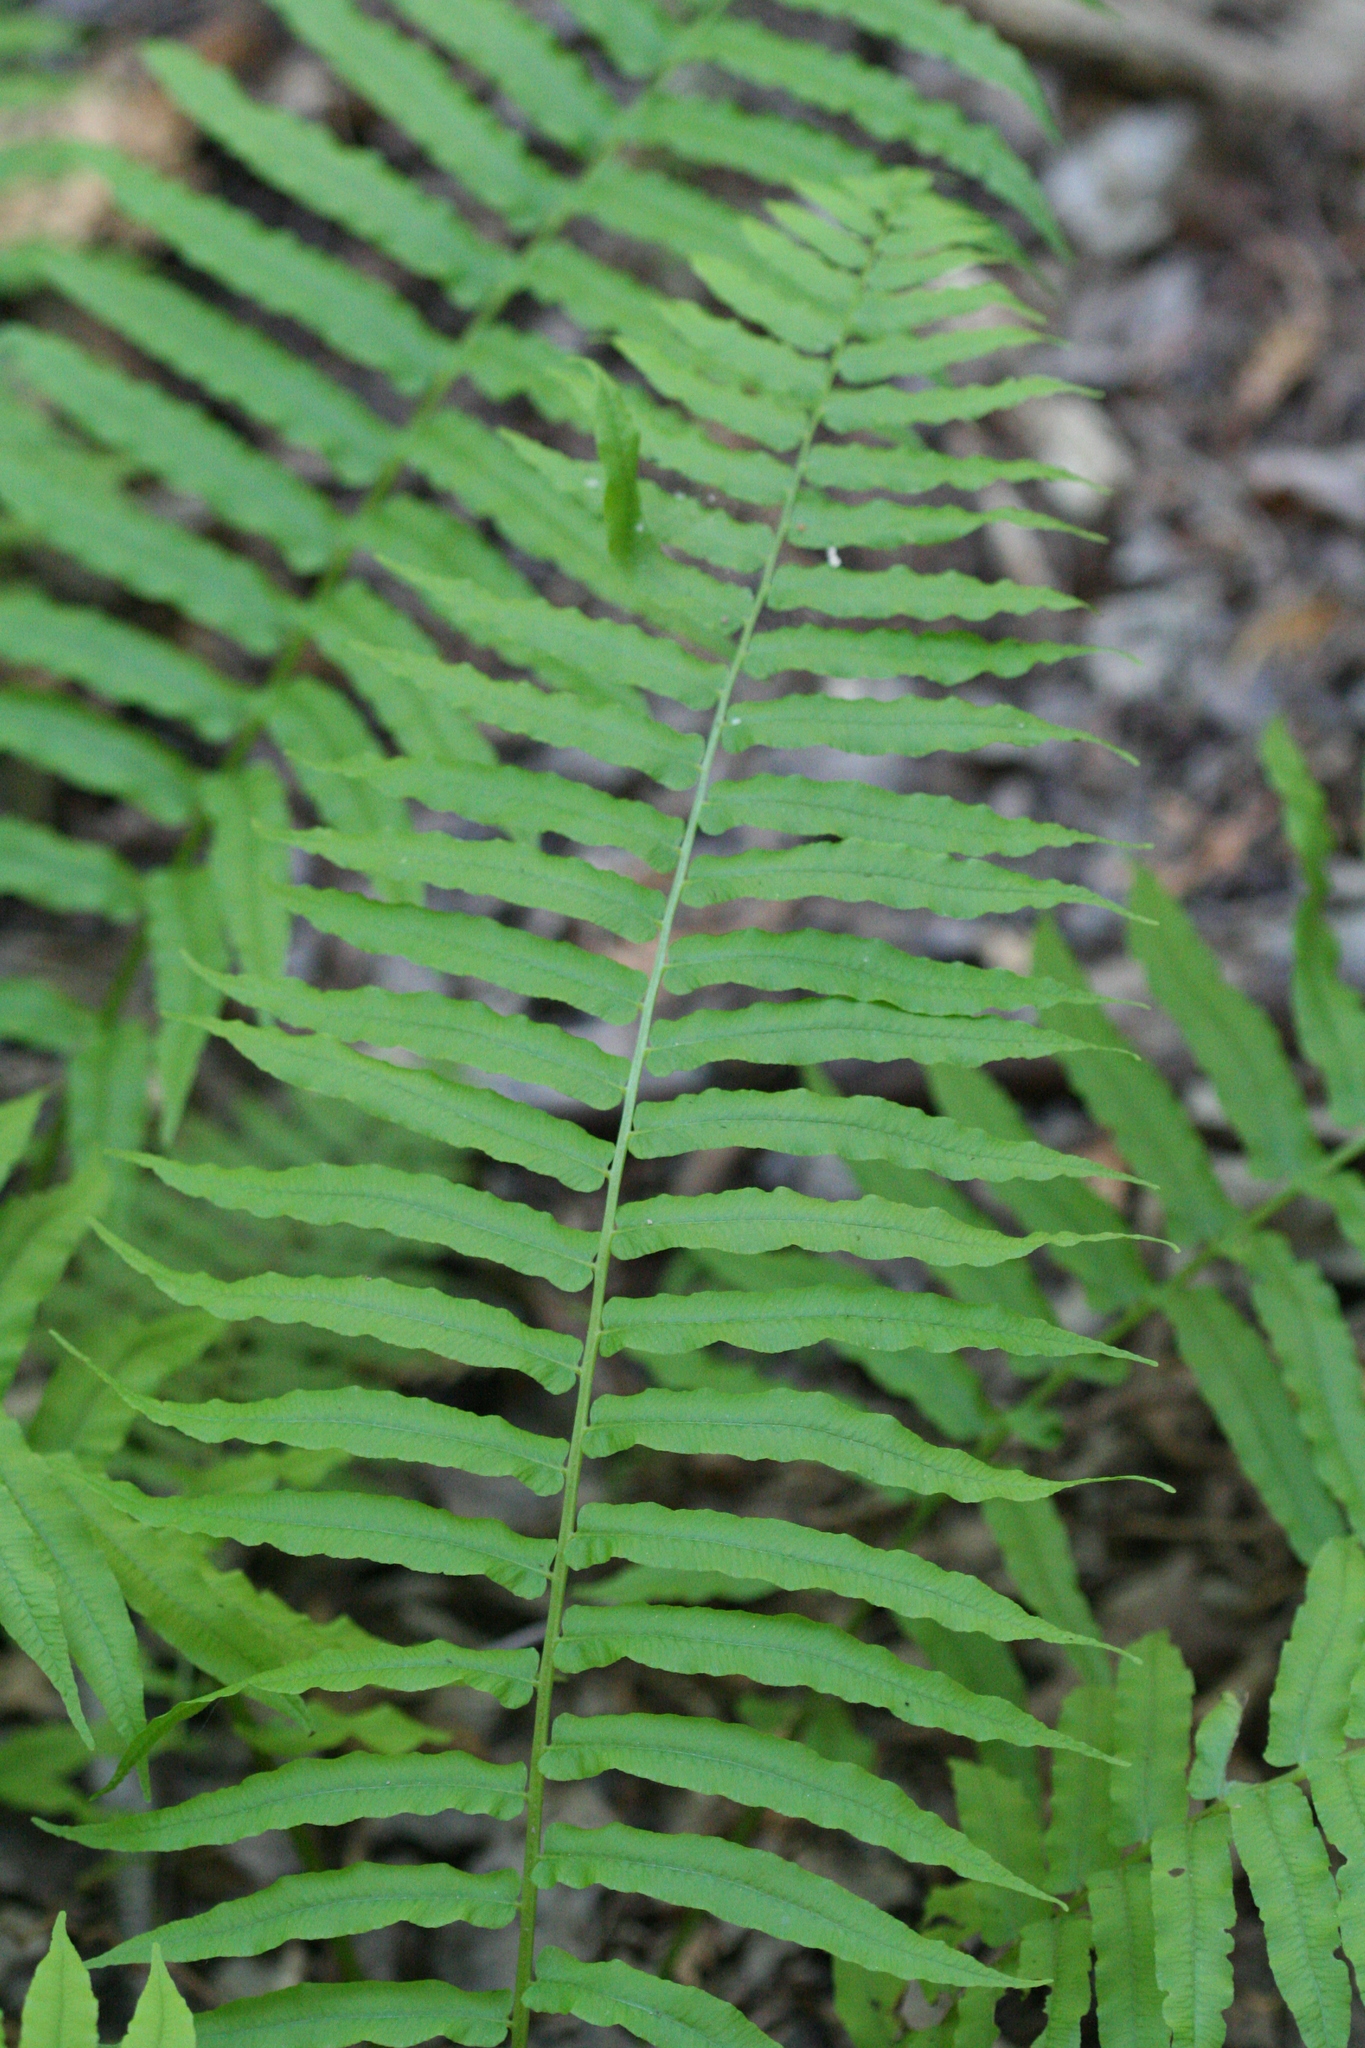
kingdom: Plantae
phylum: Tracheophyta
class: Polypodiopsida
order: Polypodiales
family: Diplaziopsidaceae
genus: Homalosorus
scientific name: Homalosorus pycnocarpos
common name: Glade fern
